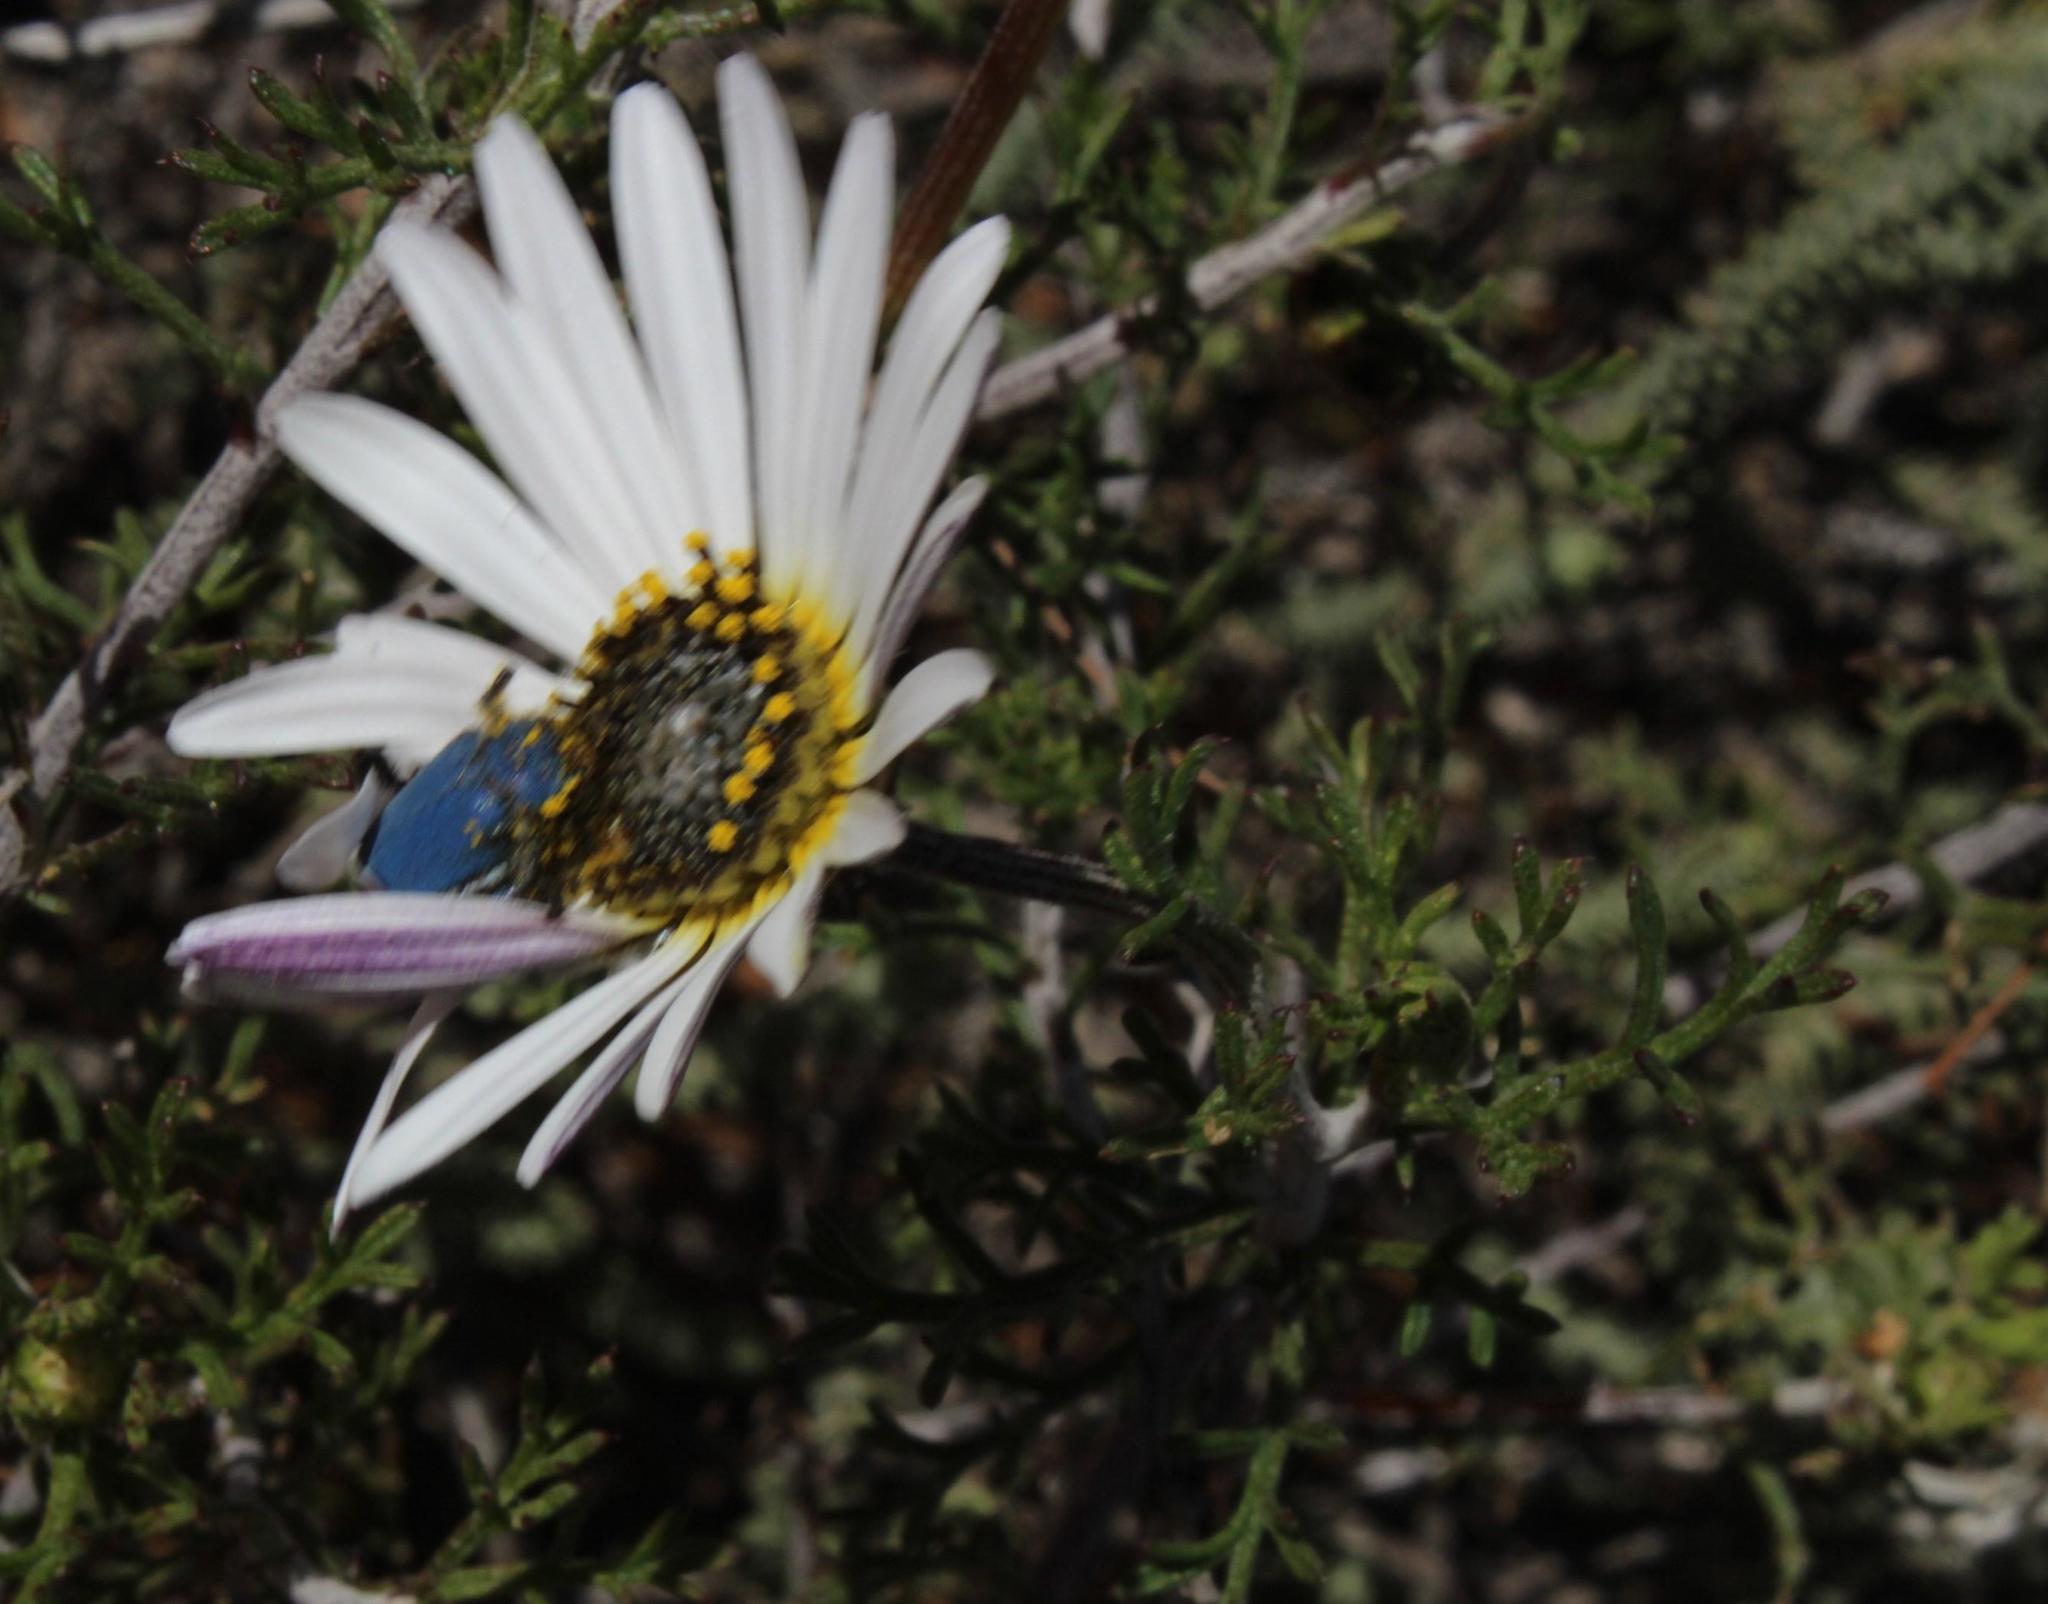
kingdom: Plantae
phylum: Tracheophyta
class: Magnoliopsida
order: Asterales
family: Asteraceae
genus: Ursinia
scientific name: Ursinia speciosa
